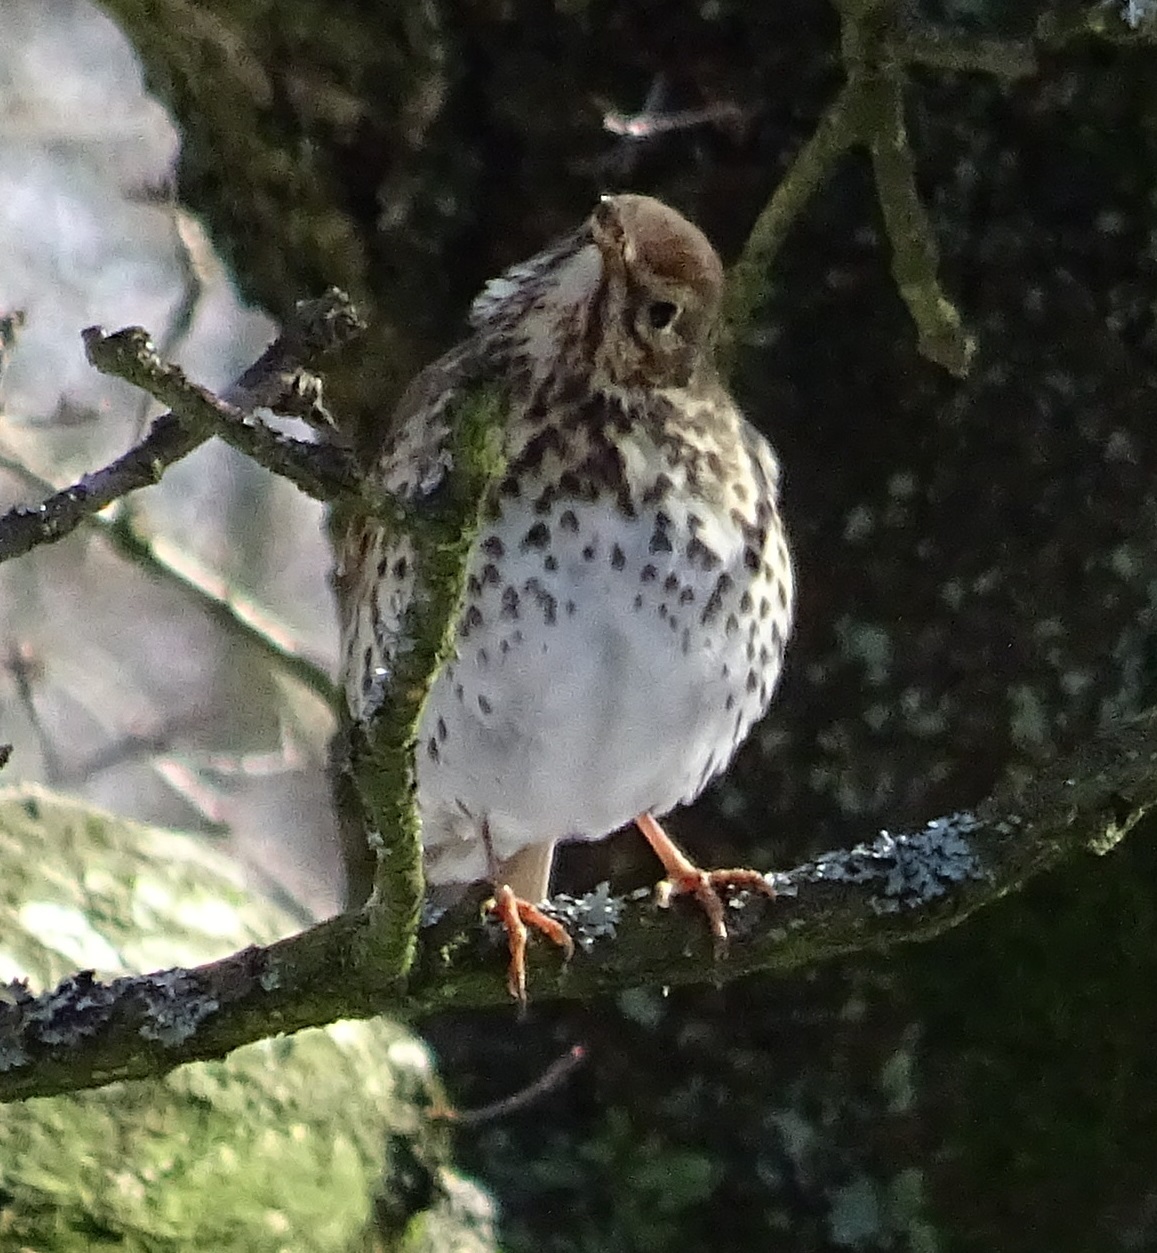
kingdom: Animalia
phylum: Chordata
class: Aves
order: Passeriformes
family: Turdidae
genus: Turdus
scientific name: Turdus philomelos
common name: Song thrush
